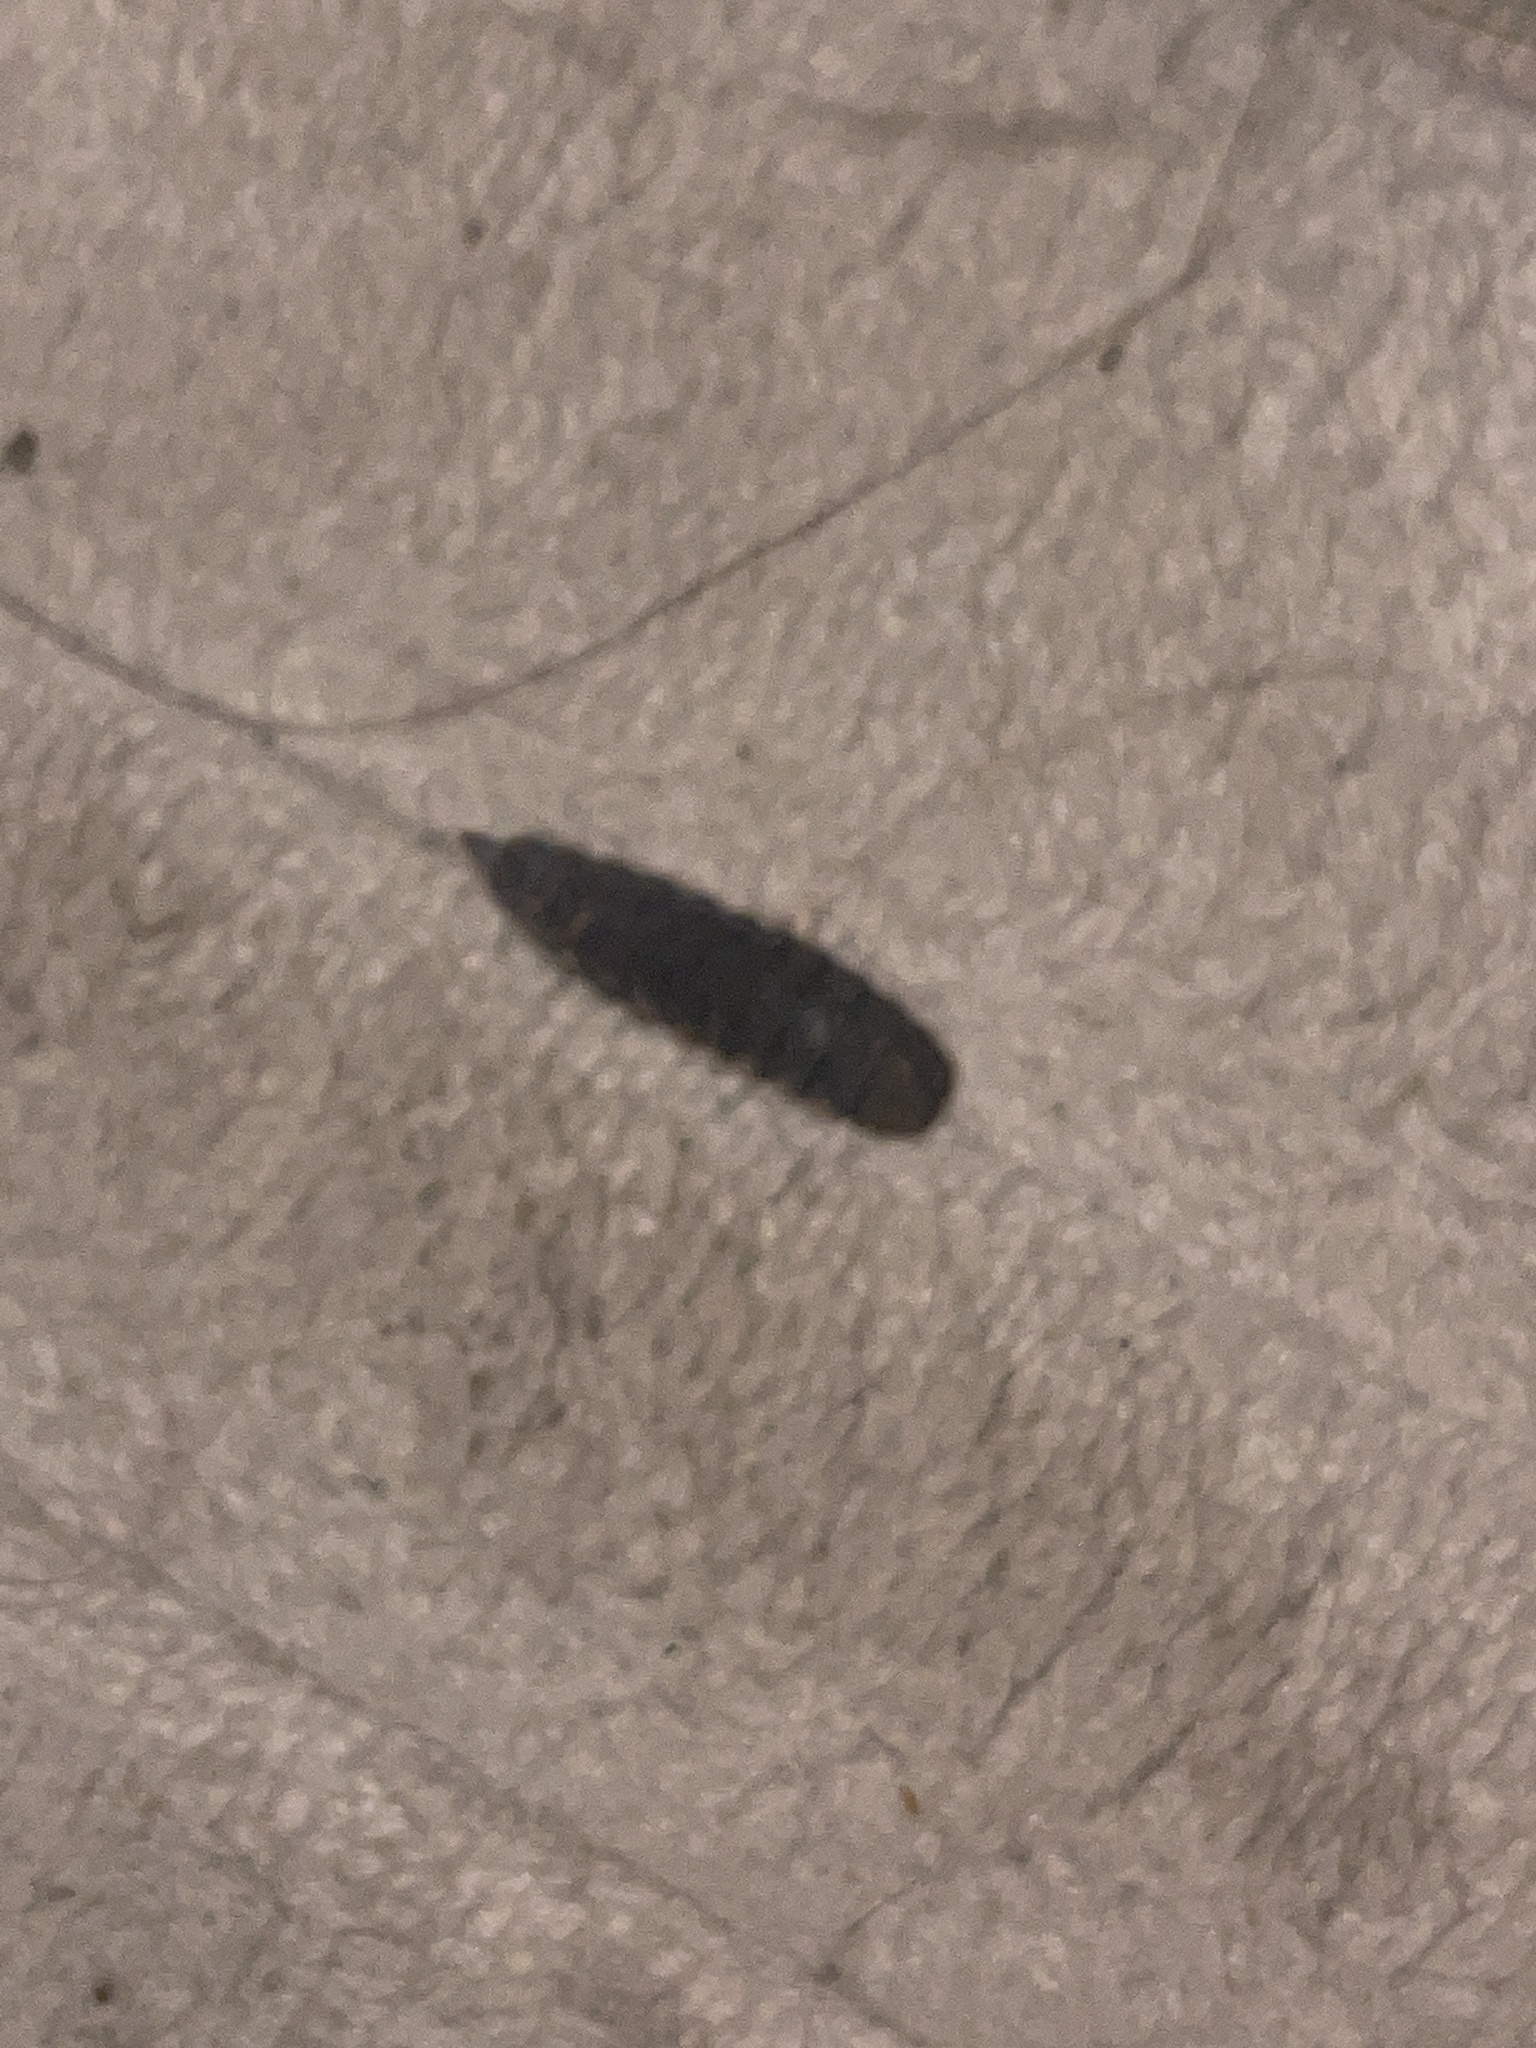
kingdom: Animalia
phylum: Arthropoda
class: Insecta
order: Diptera
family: Stratiomyidae
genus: Hermetia
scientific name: Hermetia illucens
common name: Black soldier fly
